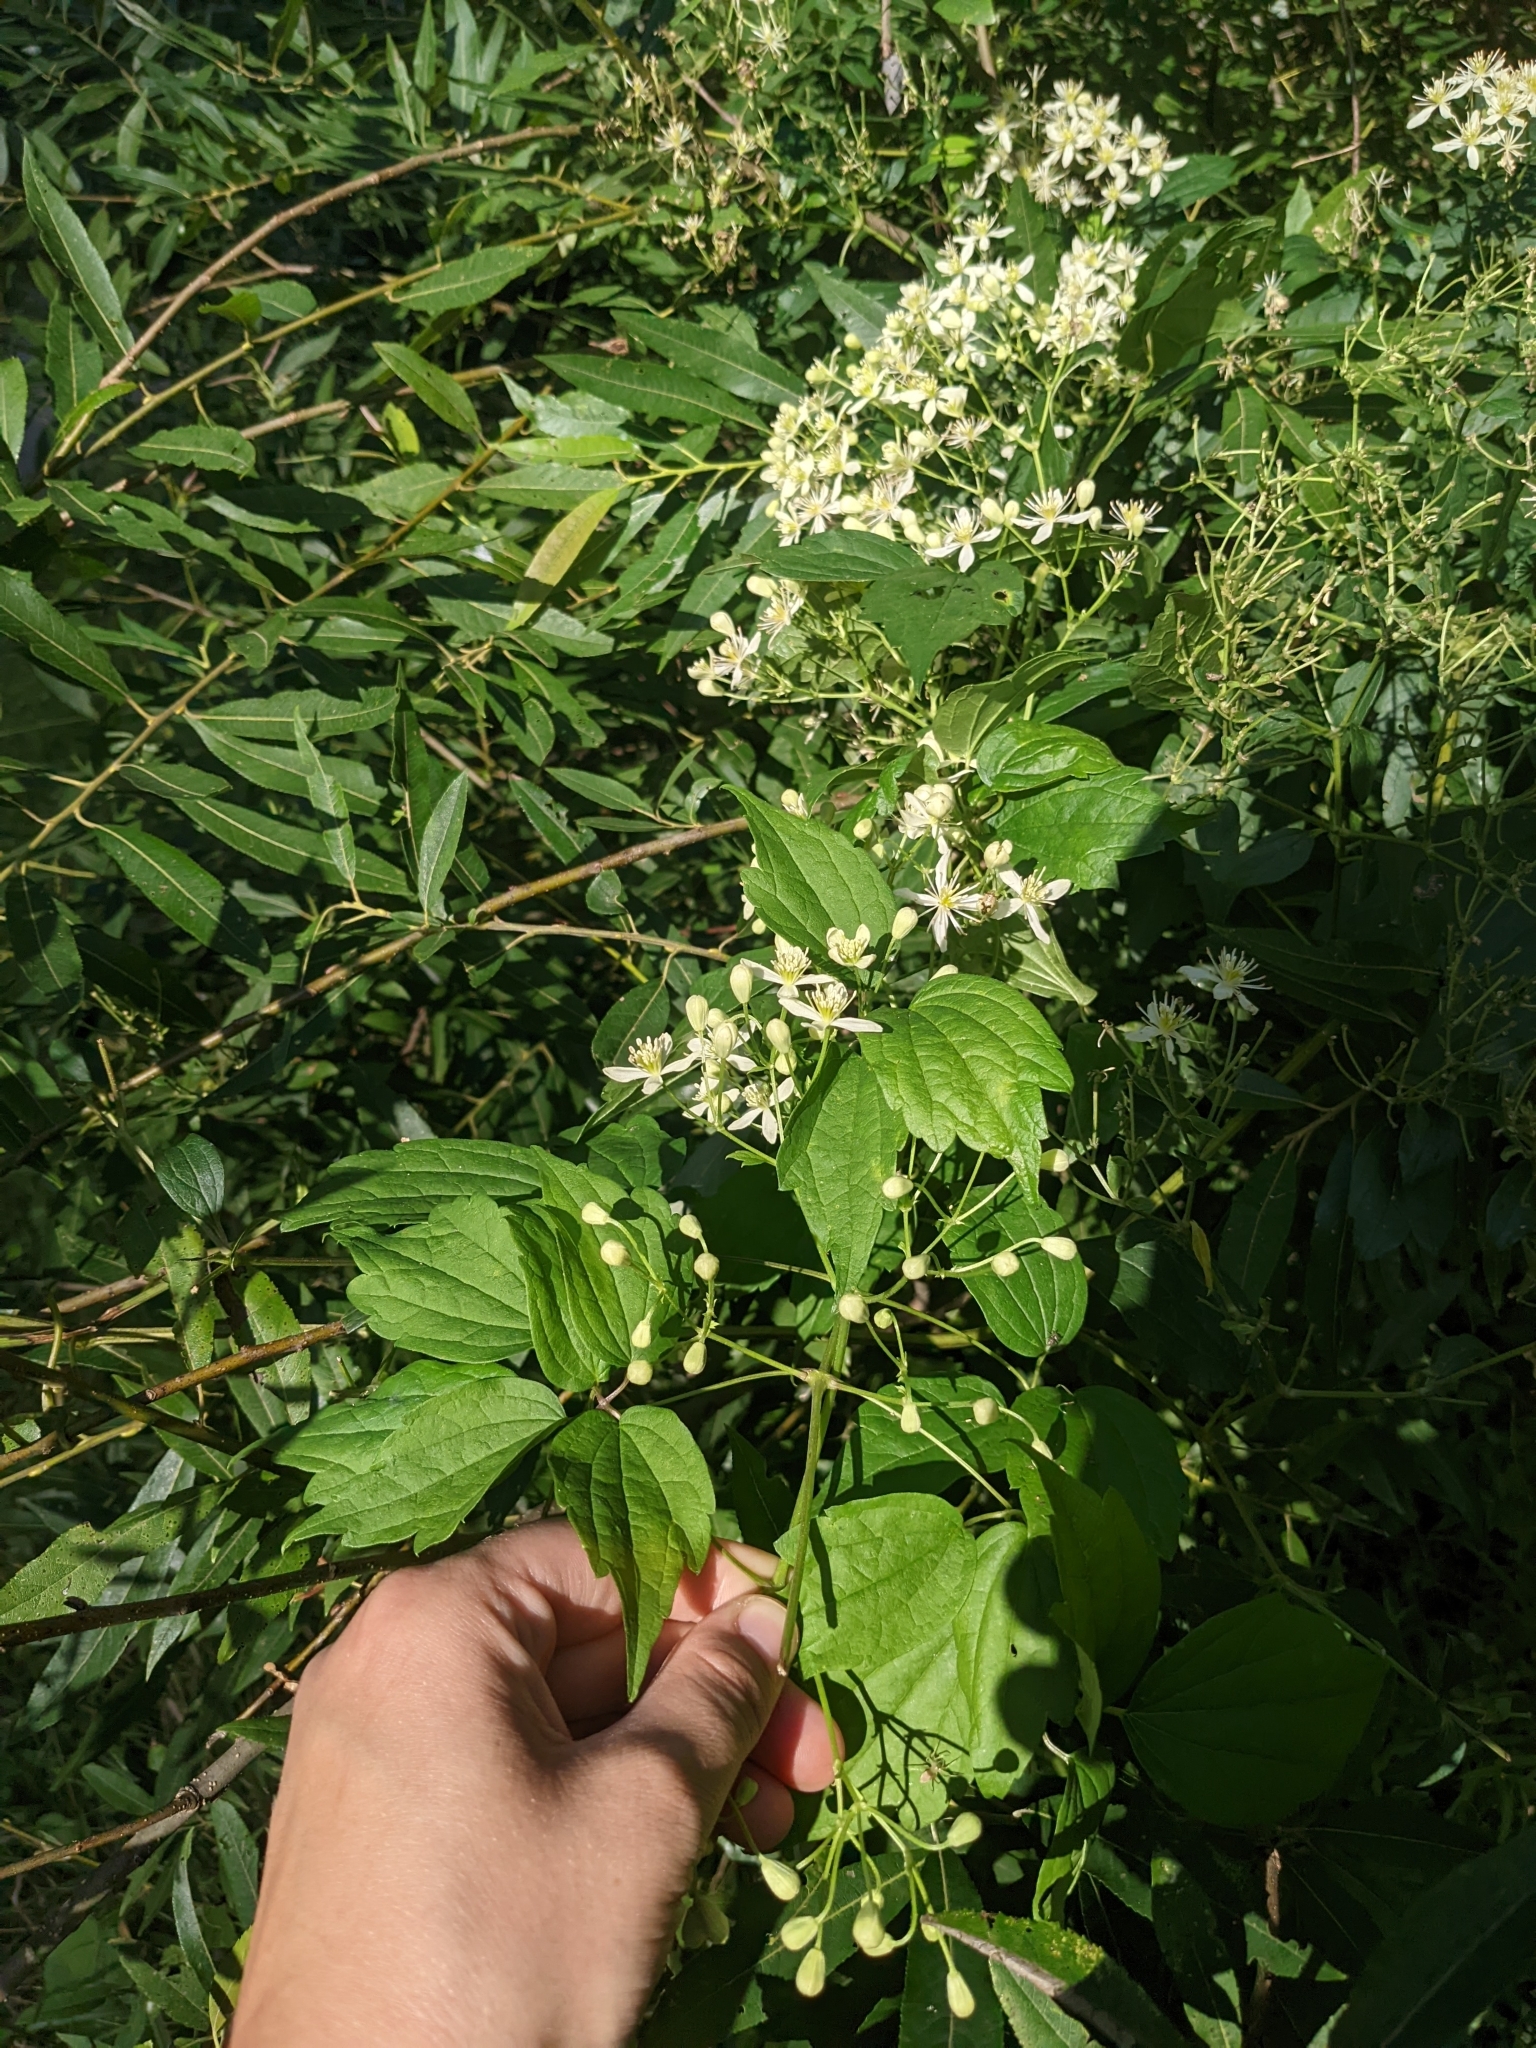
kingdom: Plantae
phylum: Tracheophyta
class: Magnoliopsida
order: Ranunculales
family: Ranunculaceae
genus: Clematis
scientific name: Clematis virginiana
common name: Virgin's-bower
